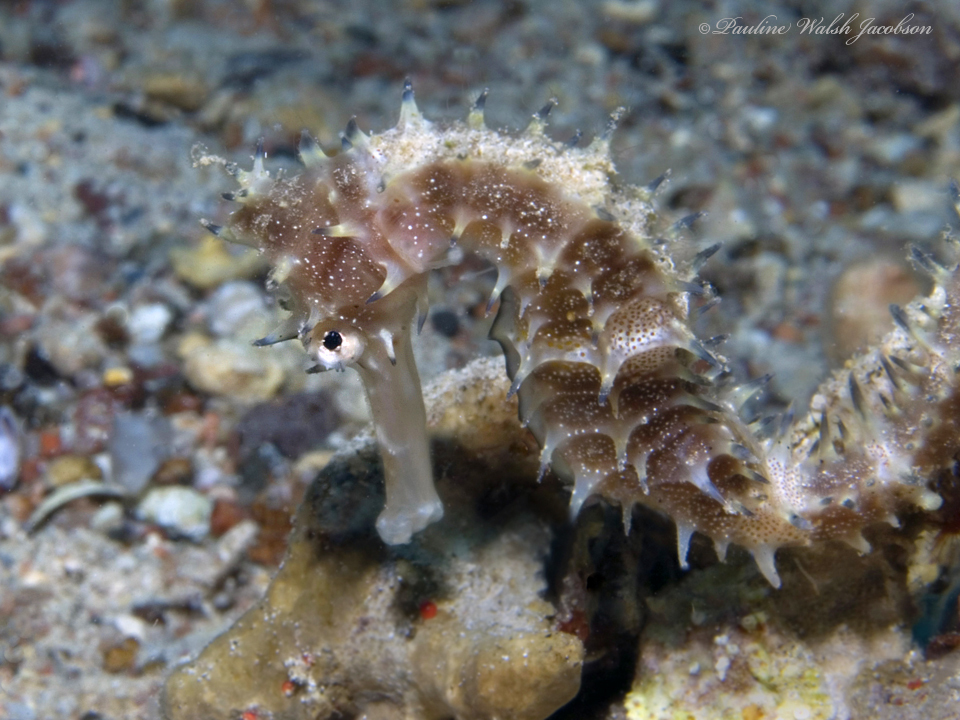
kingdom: Animalia
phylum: Chordata
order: Syngnathiformes
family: Syngnathidae
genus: Hippocampus
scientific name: Hippocampus jayakari
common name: Jayakar's seahorse
